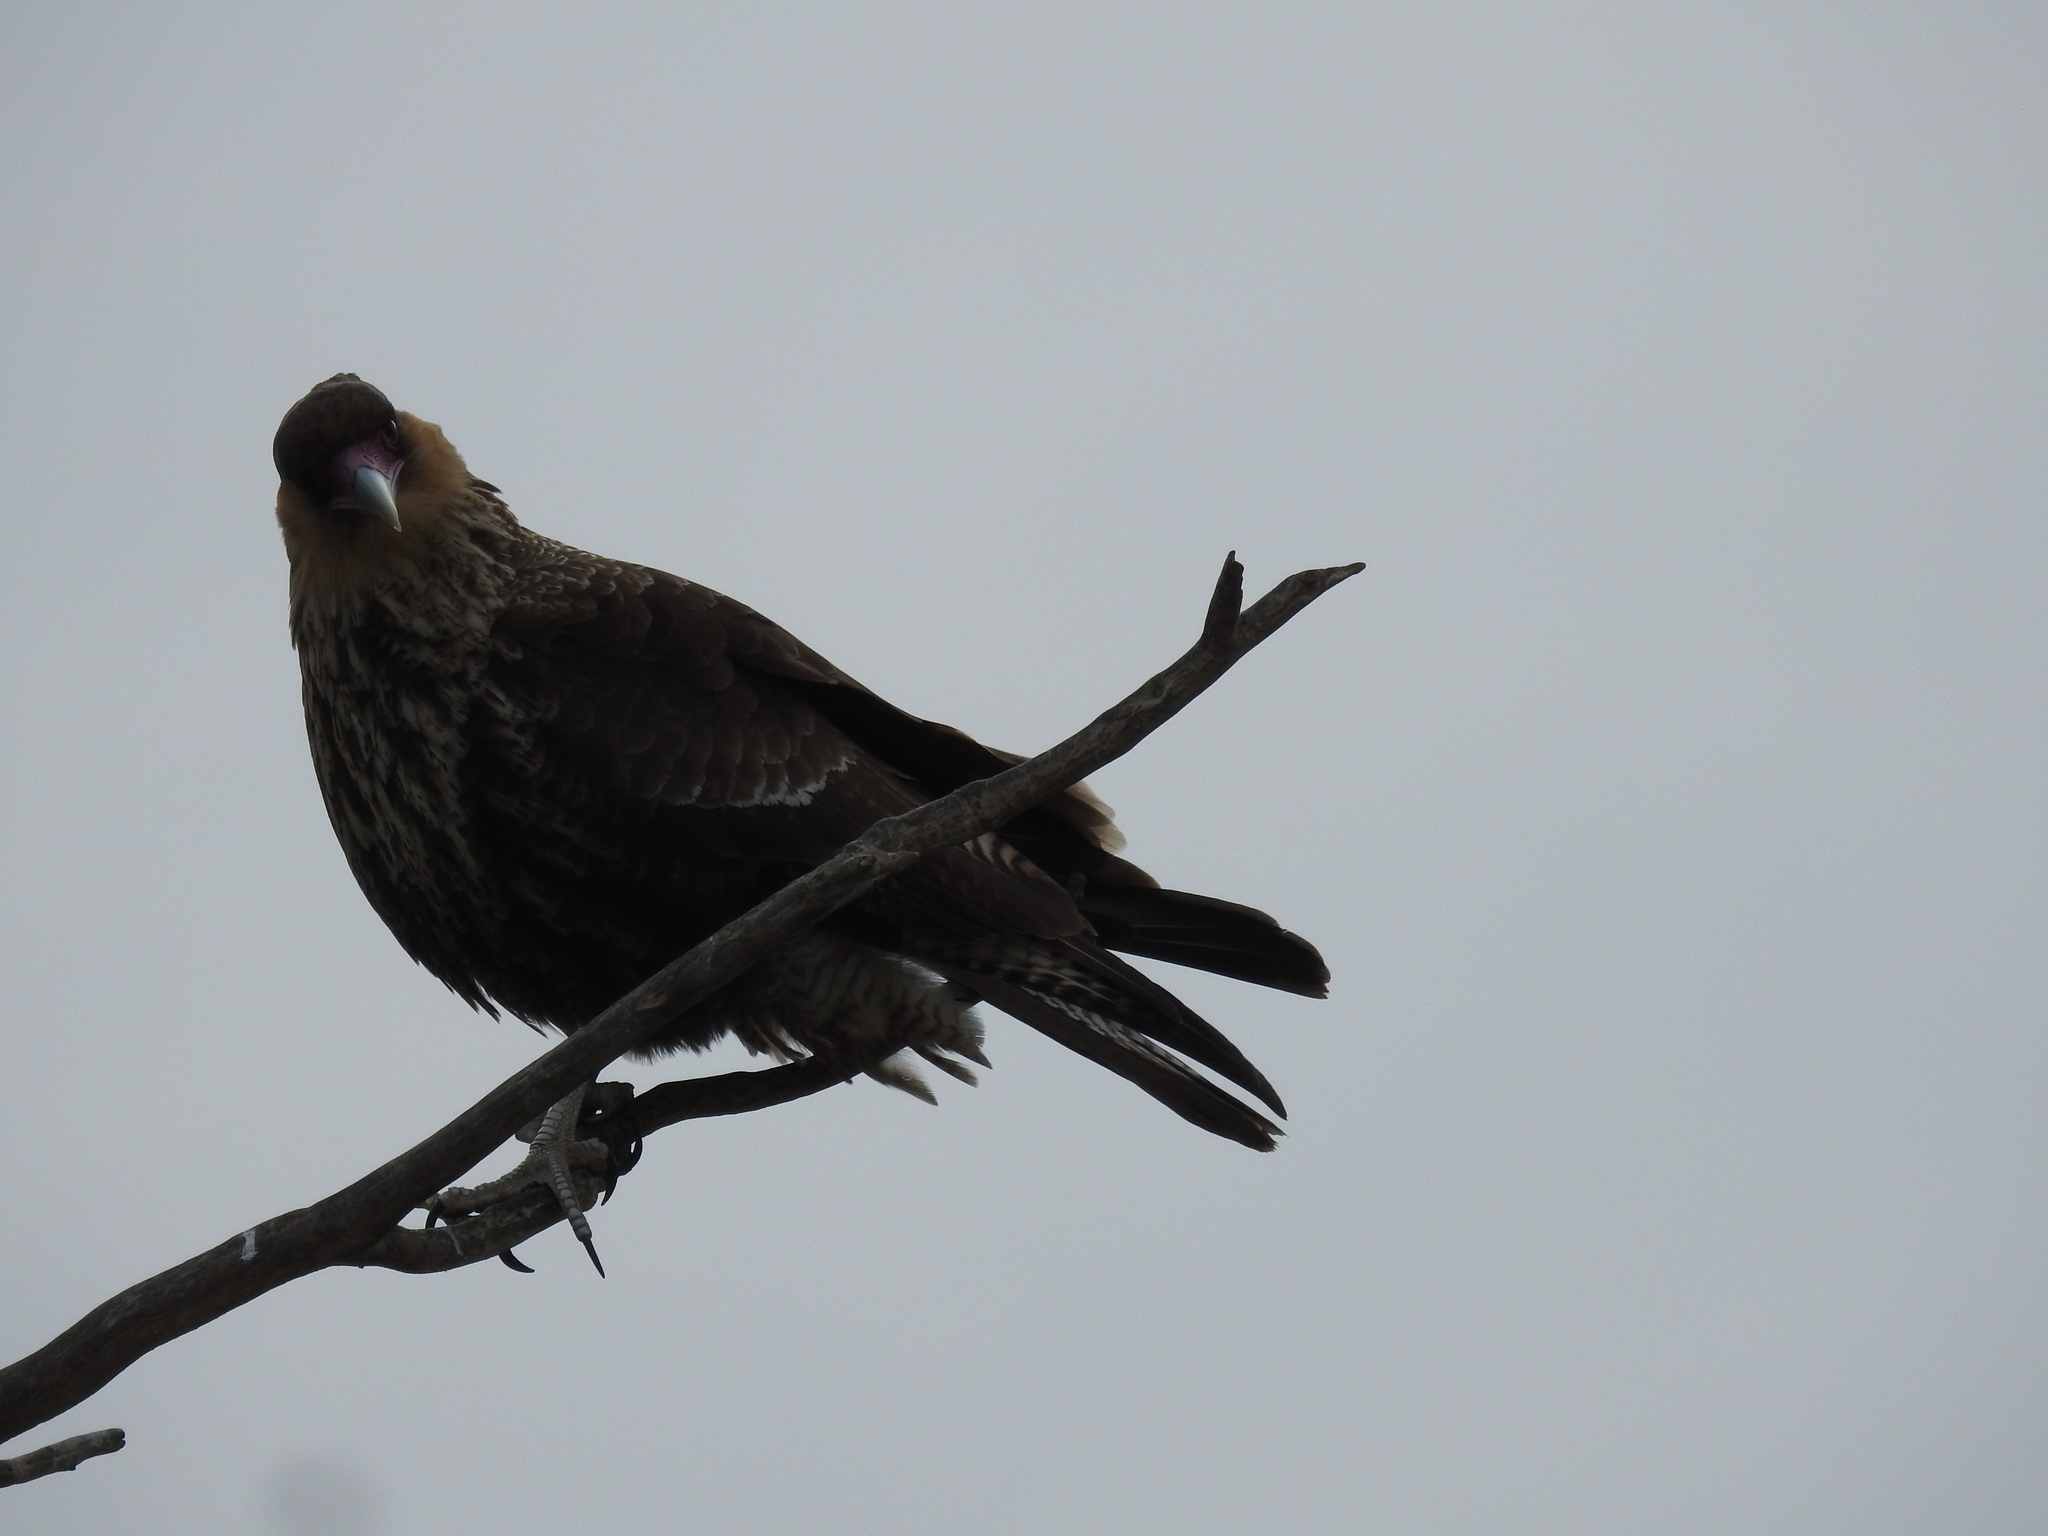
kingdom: Animalia
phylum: Chordata
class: Aves
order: Falconiformes
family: Falconidae
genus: Caracara
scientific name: Caracara plancus
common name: Southern caracara
